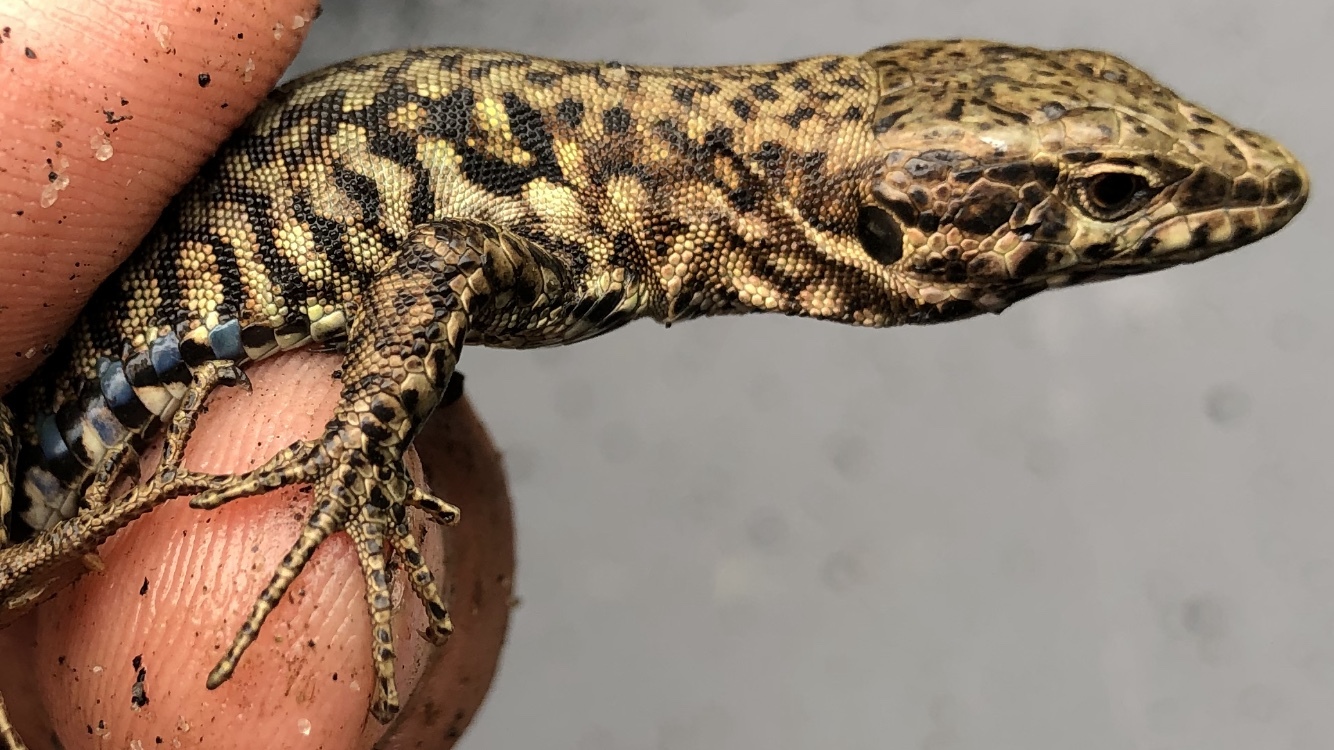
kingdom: Animalia
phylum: Chordata
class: Squamata
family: Lacertidae
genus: Podarcis
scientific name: Podarcis muralis
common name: Common wall lizard
